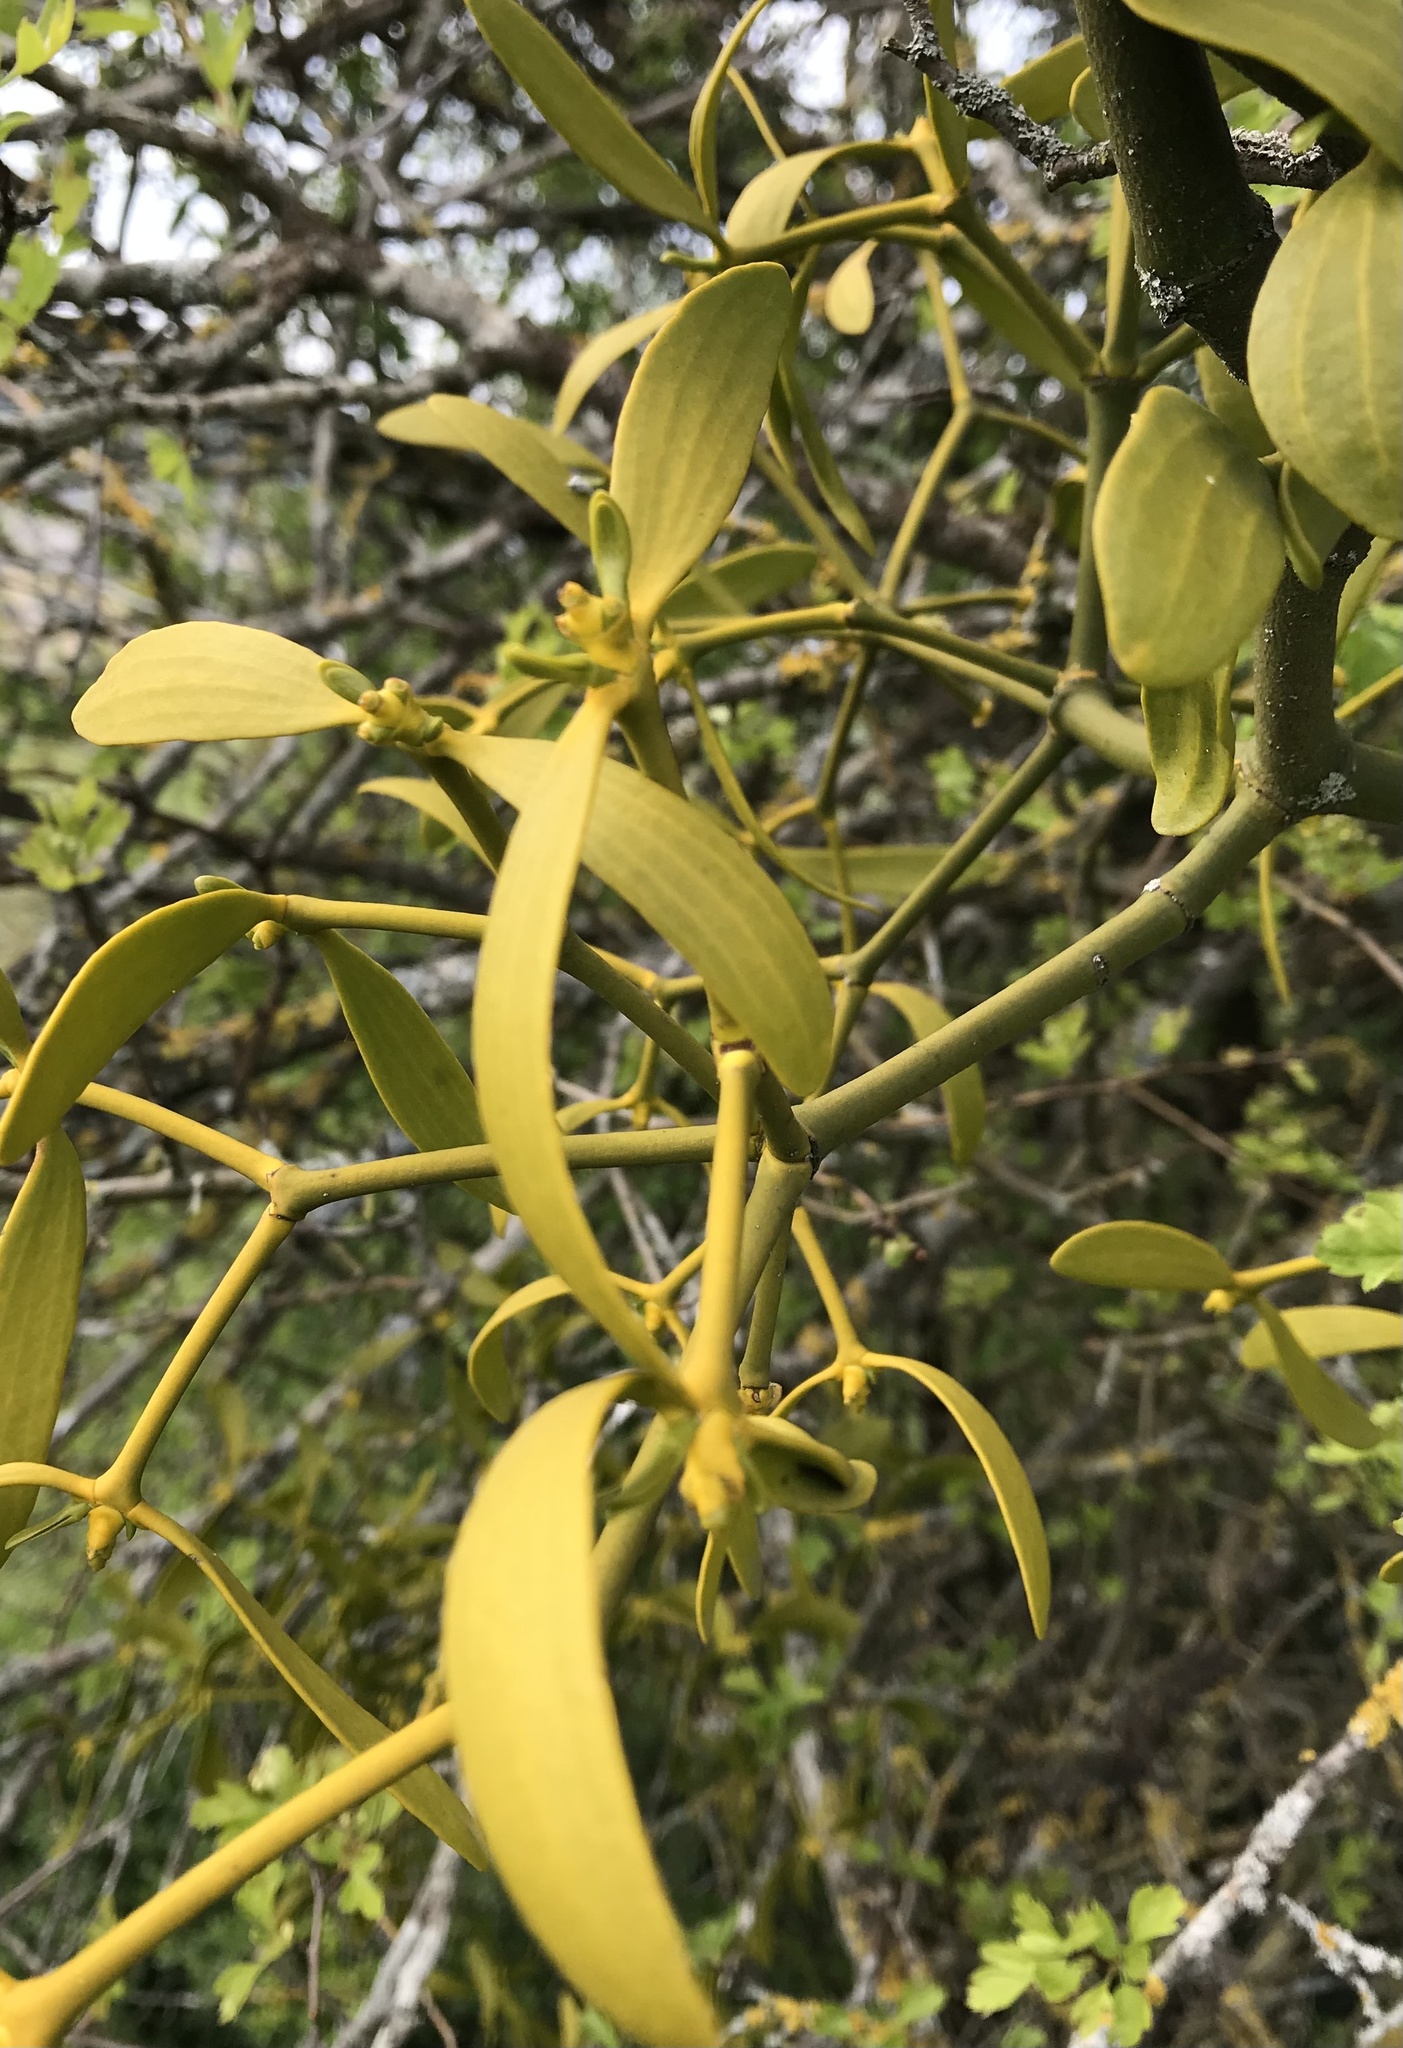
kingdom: Plantae
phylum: Tracheophyta
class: Magnoliopsida
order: Santalales
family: Viscaceae
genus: Viscum
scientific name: Viscum album
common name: Mistletoe
